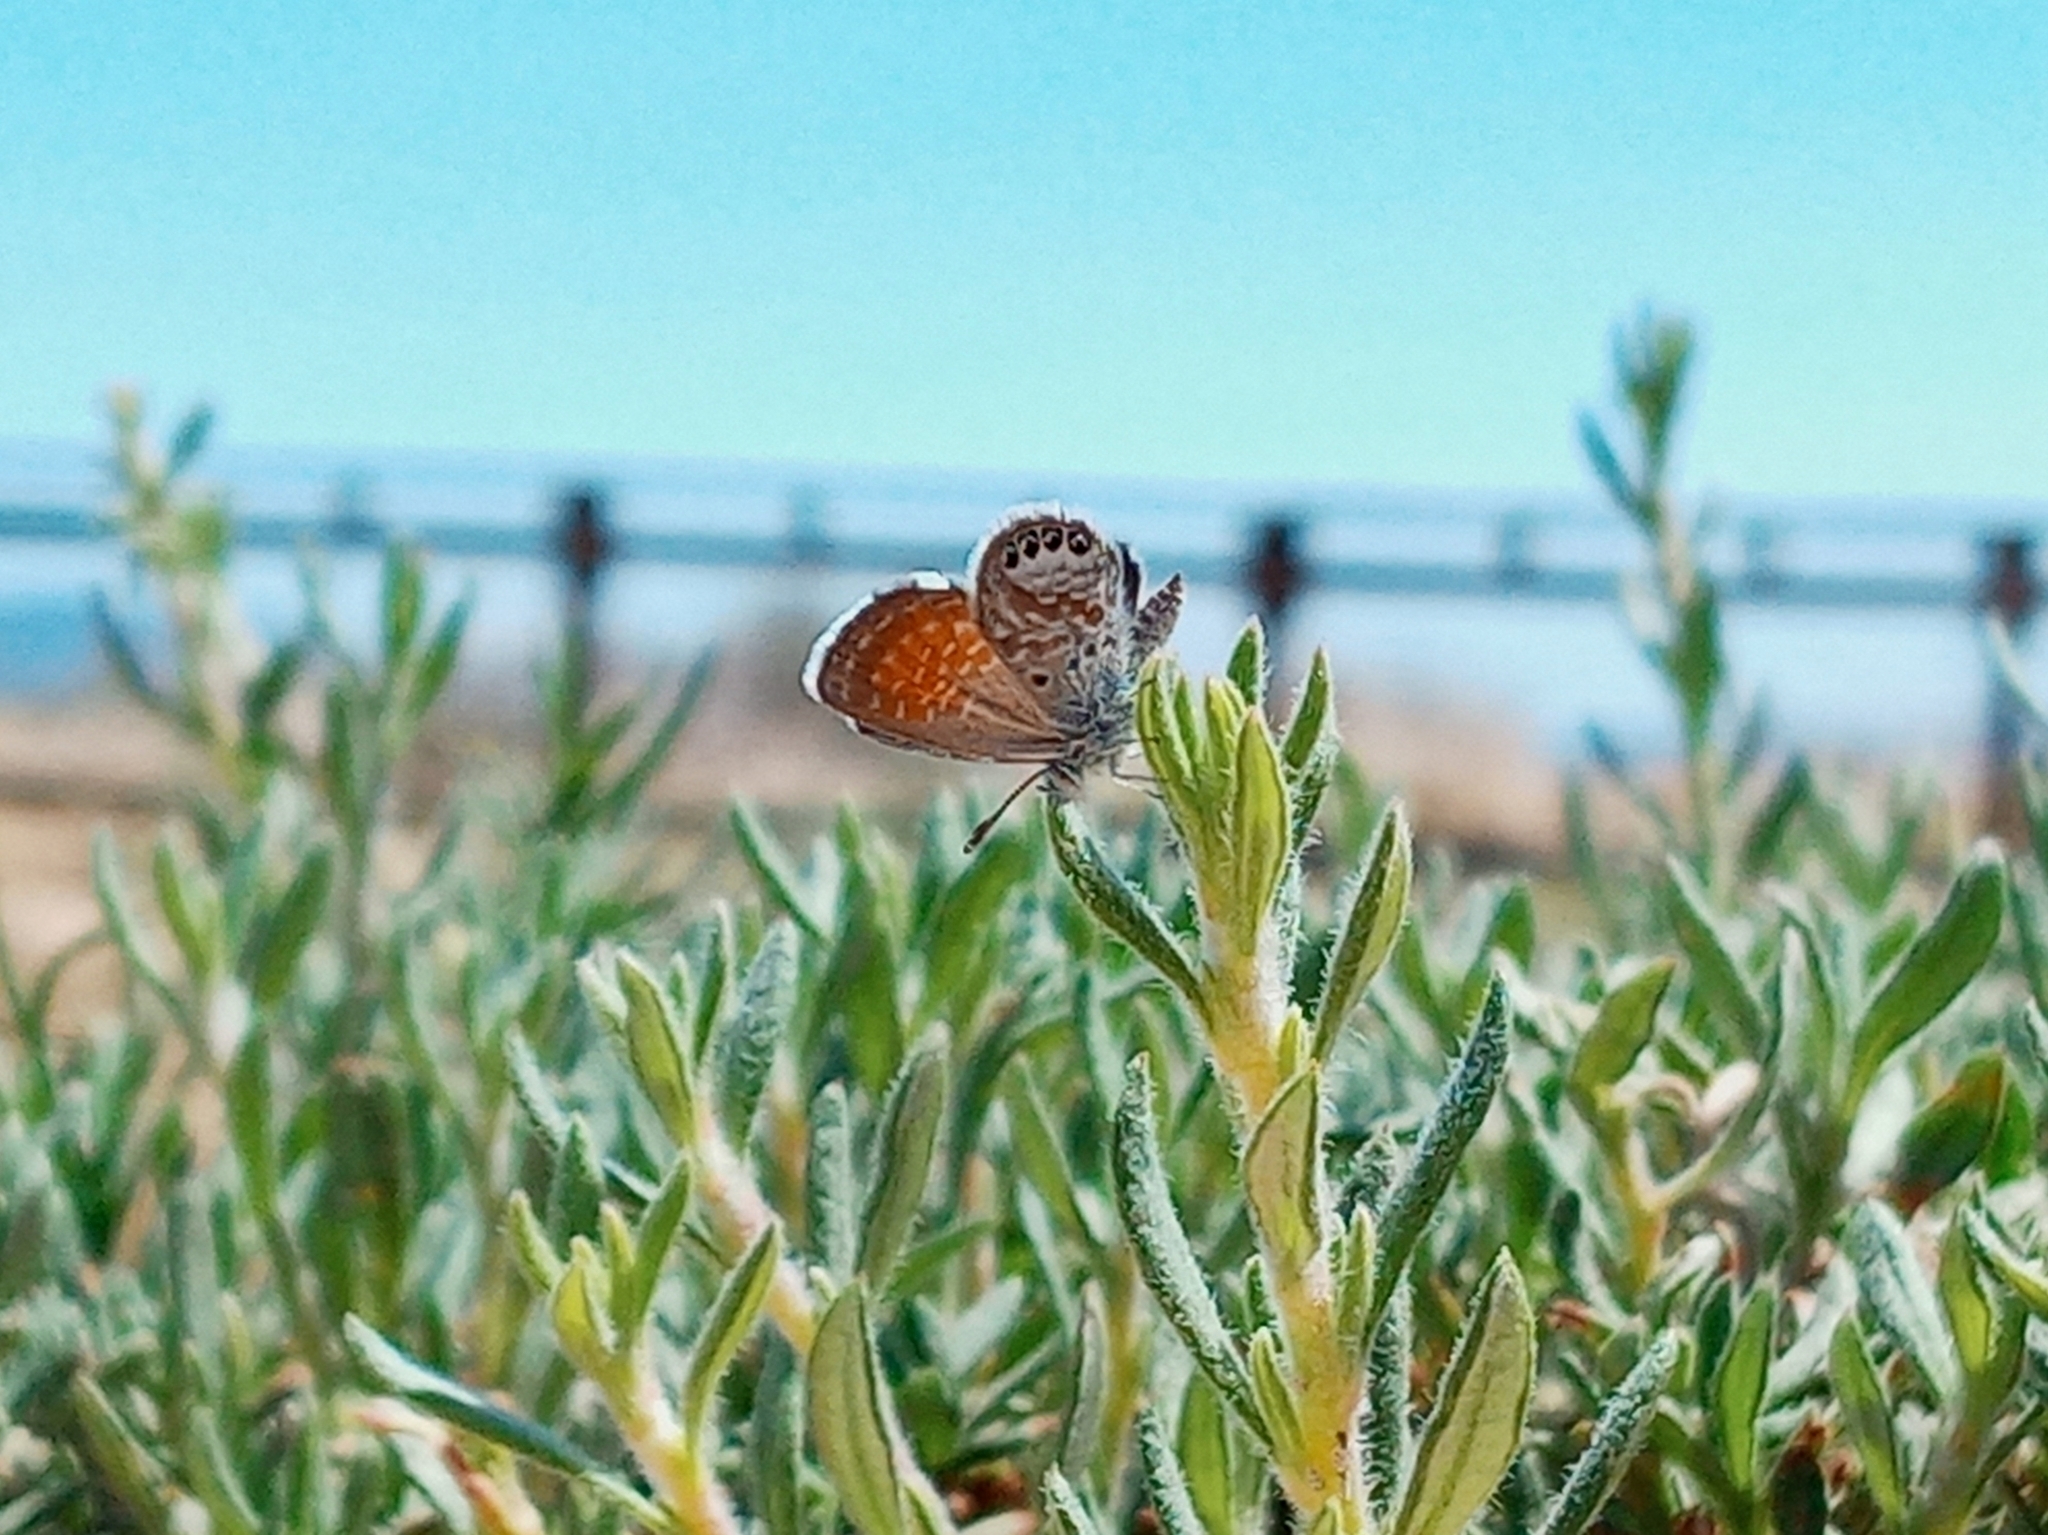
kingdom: Animalia
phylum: Arthropoda
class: Insecta
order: Lepidoptera
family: Lycaenidae
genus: Brephidium
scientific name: Brephidium exilis
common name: Pygmy blue
